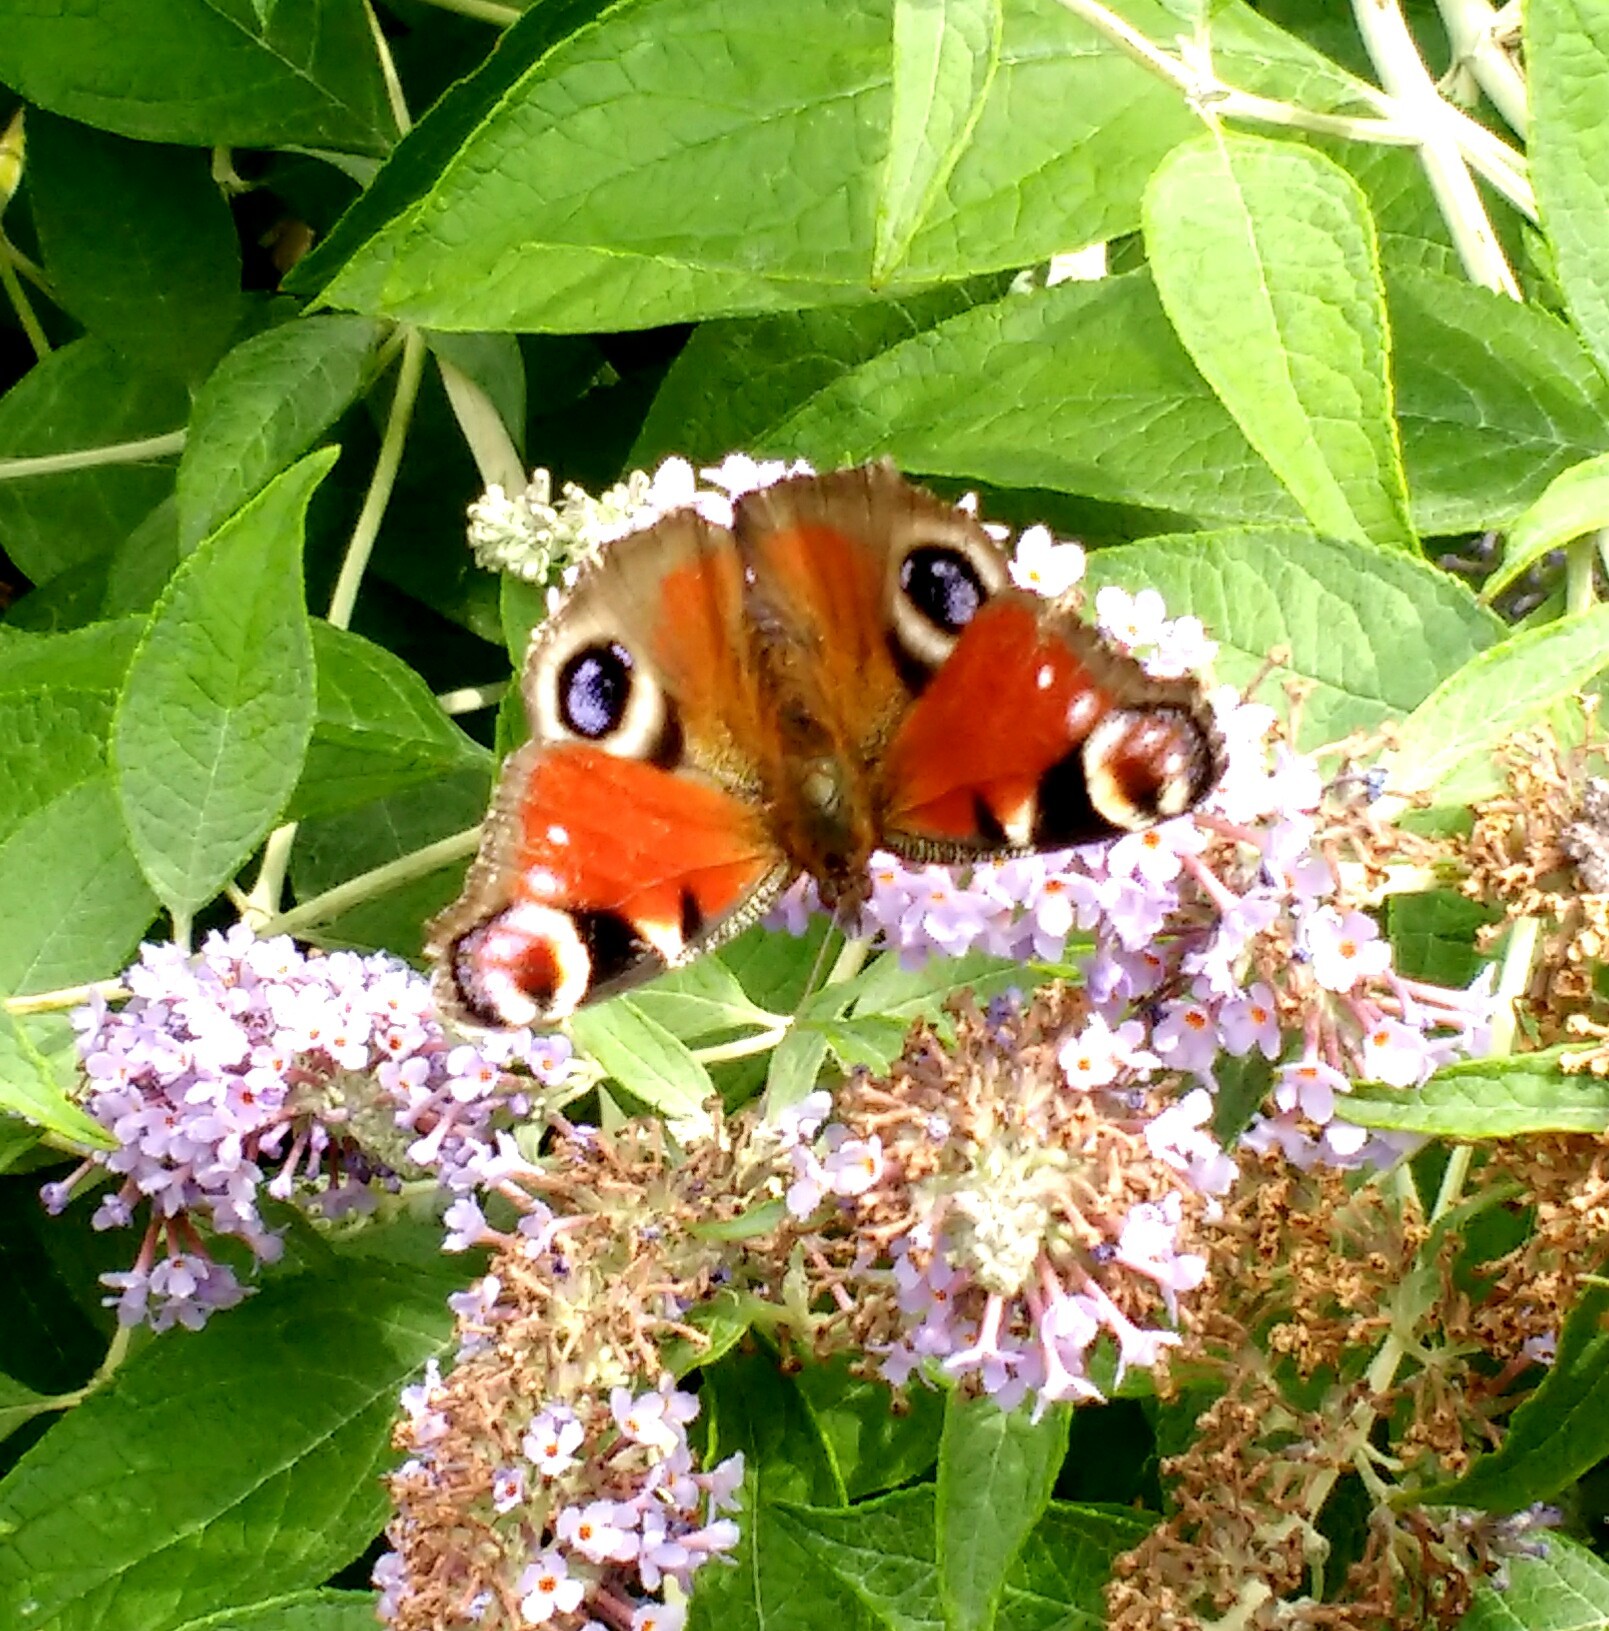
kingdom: Animalia
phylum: Arthropoda
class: Insecta
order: Lepidoptera
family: Nymphalidae
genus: Aglais
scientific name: Aglais io
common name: Peacock
